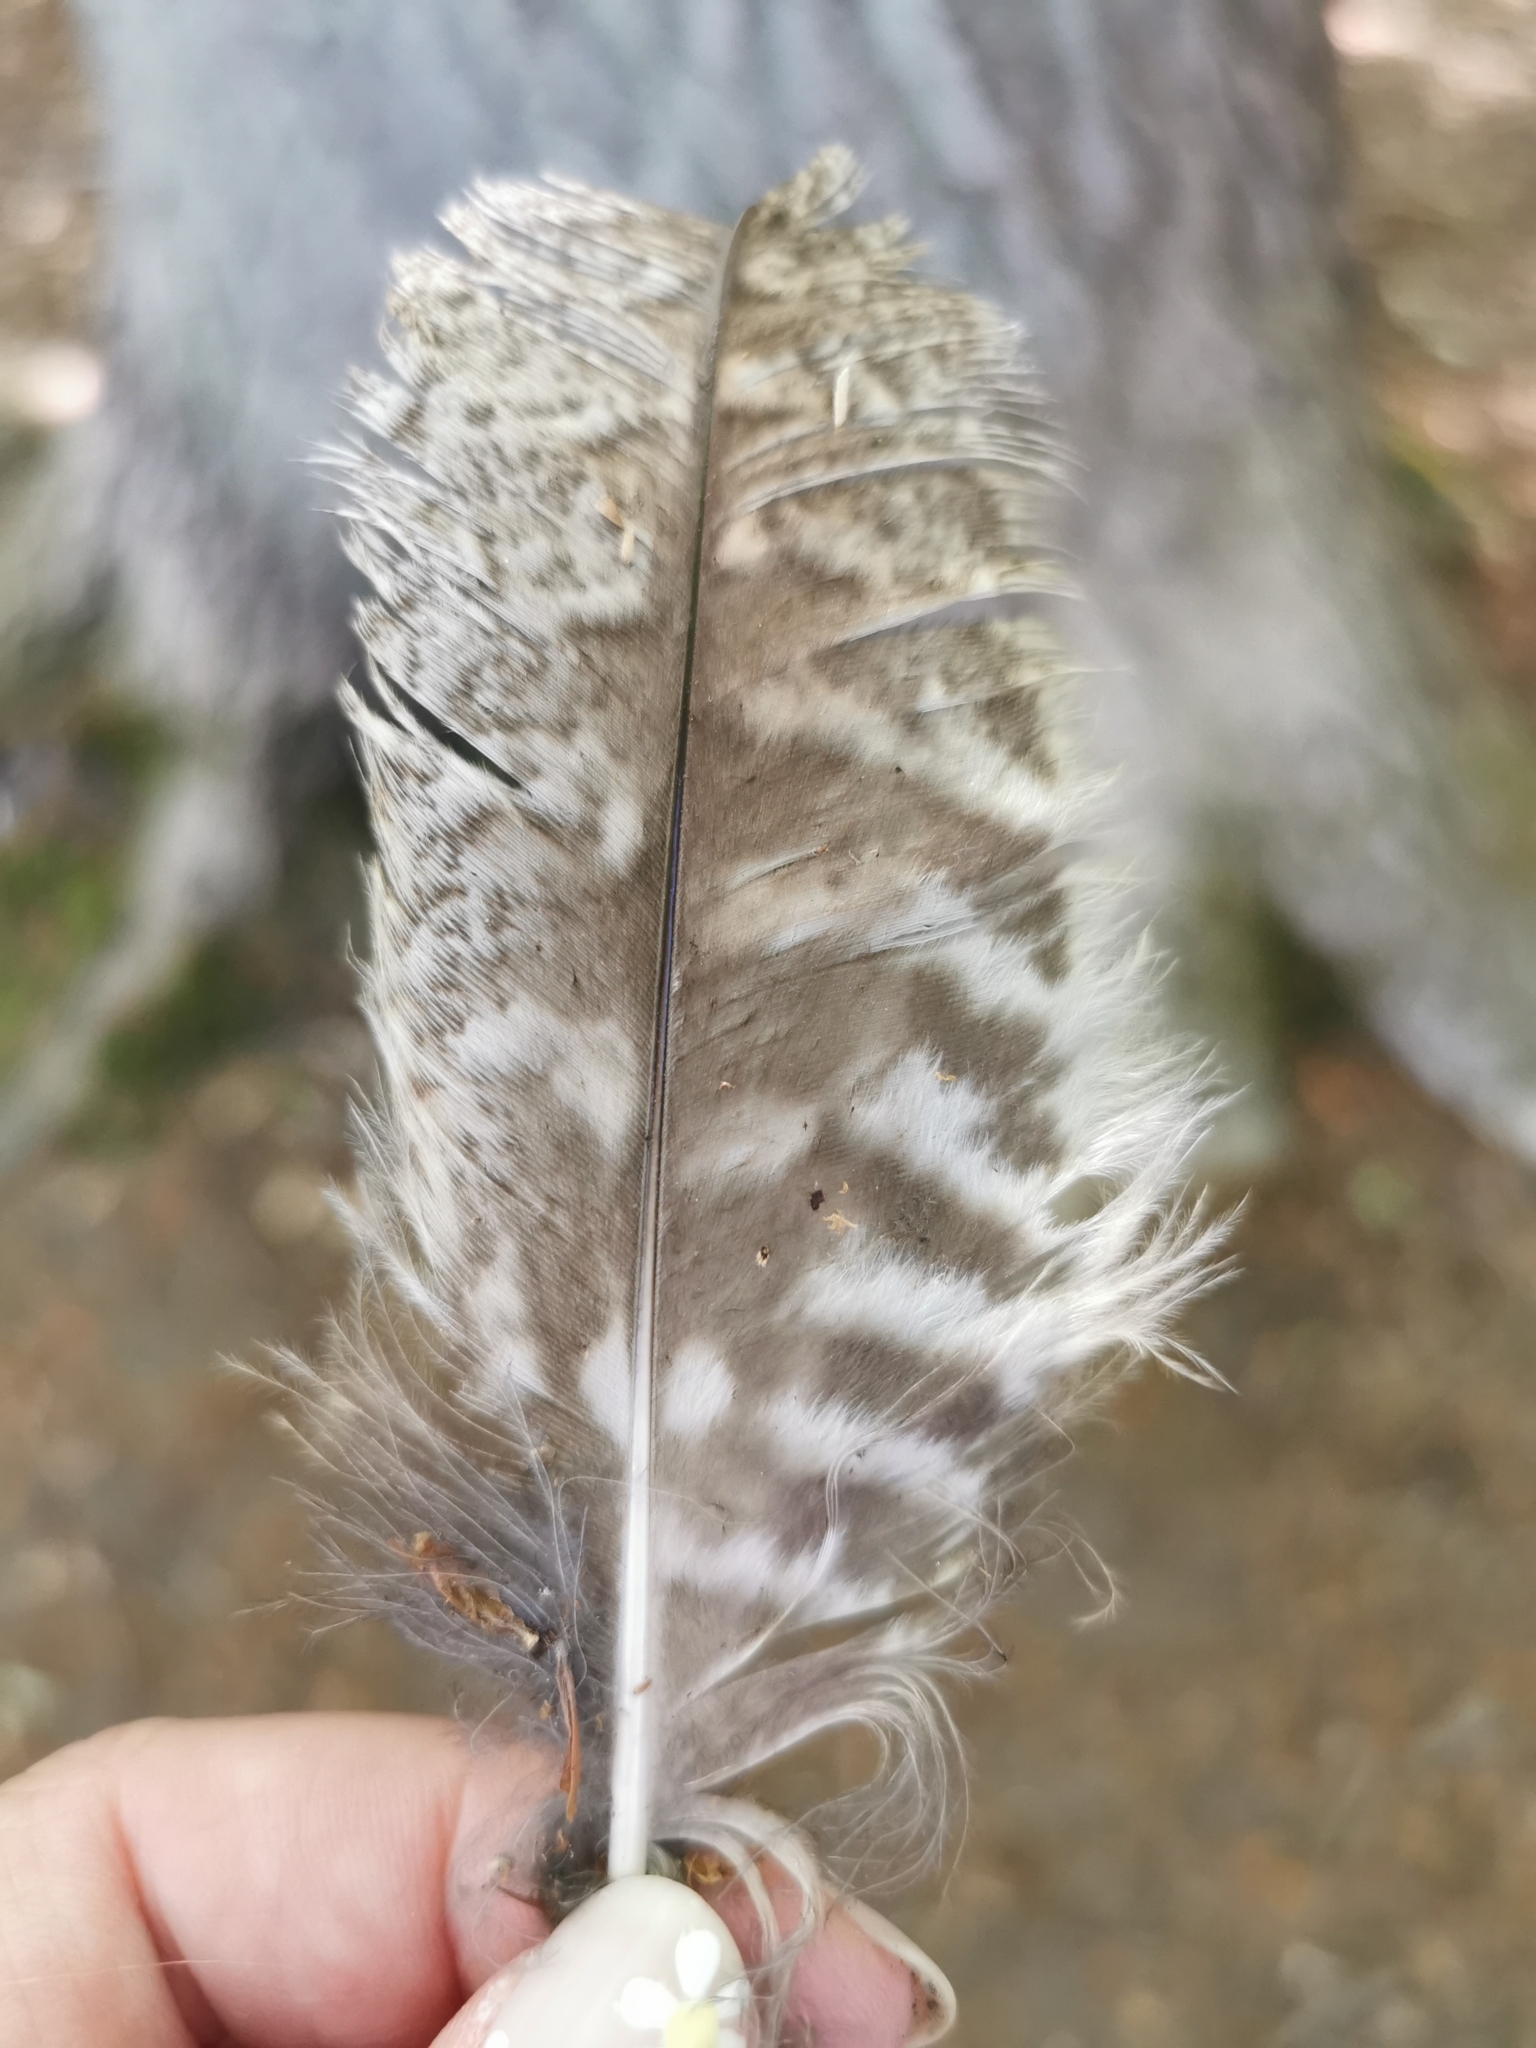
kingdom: Animalia
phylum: Chordata
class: Aves
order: Strigiformes
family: Strigidae
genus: Strix
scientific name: Strix aluco
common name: Tawny owl
